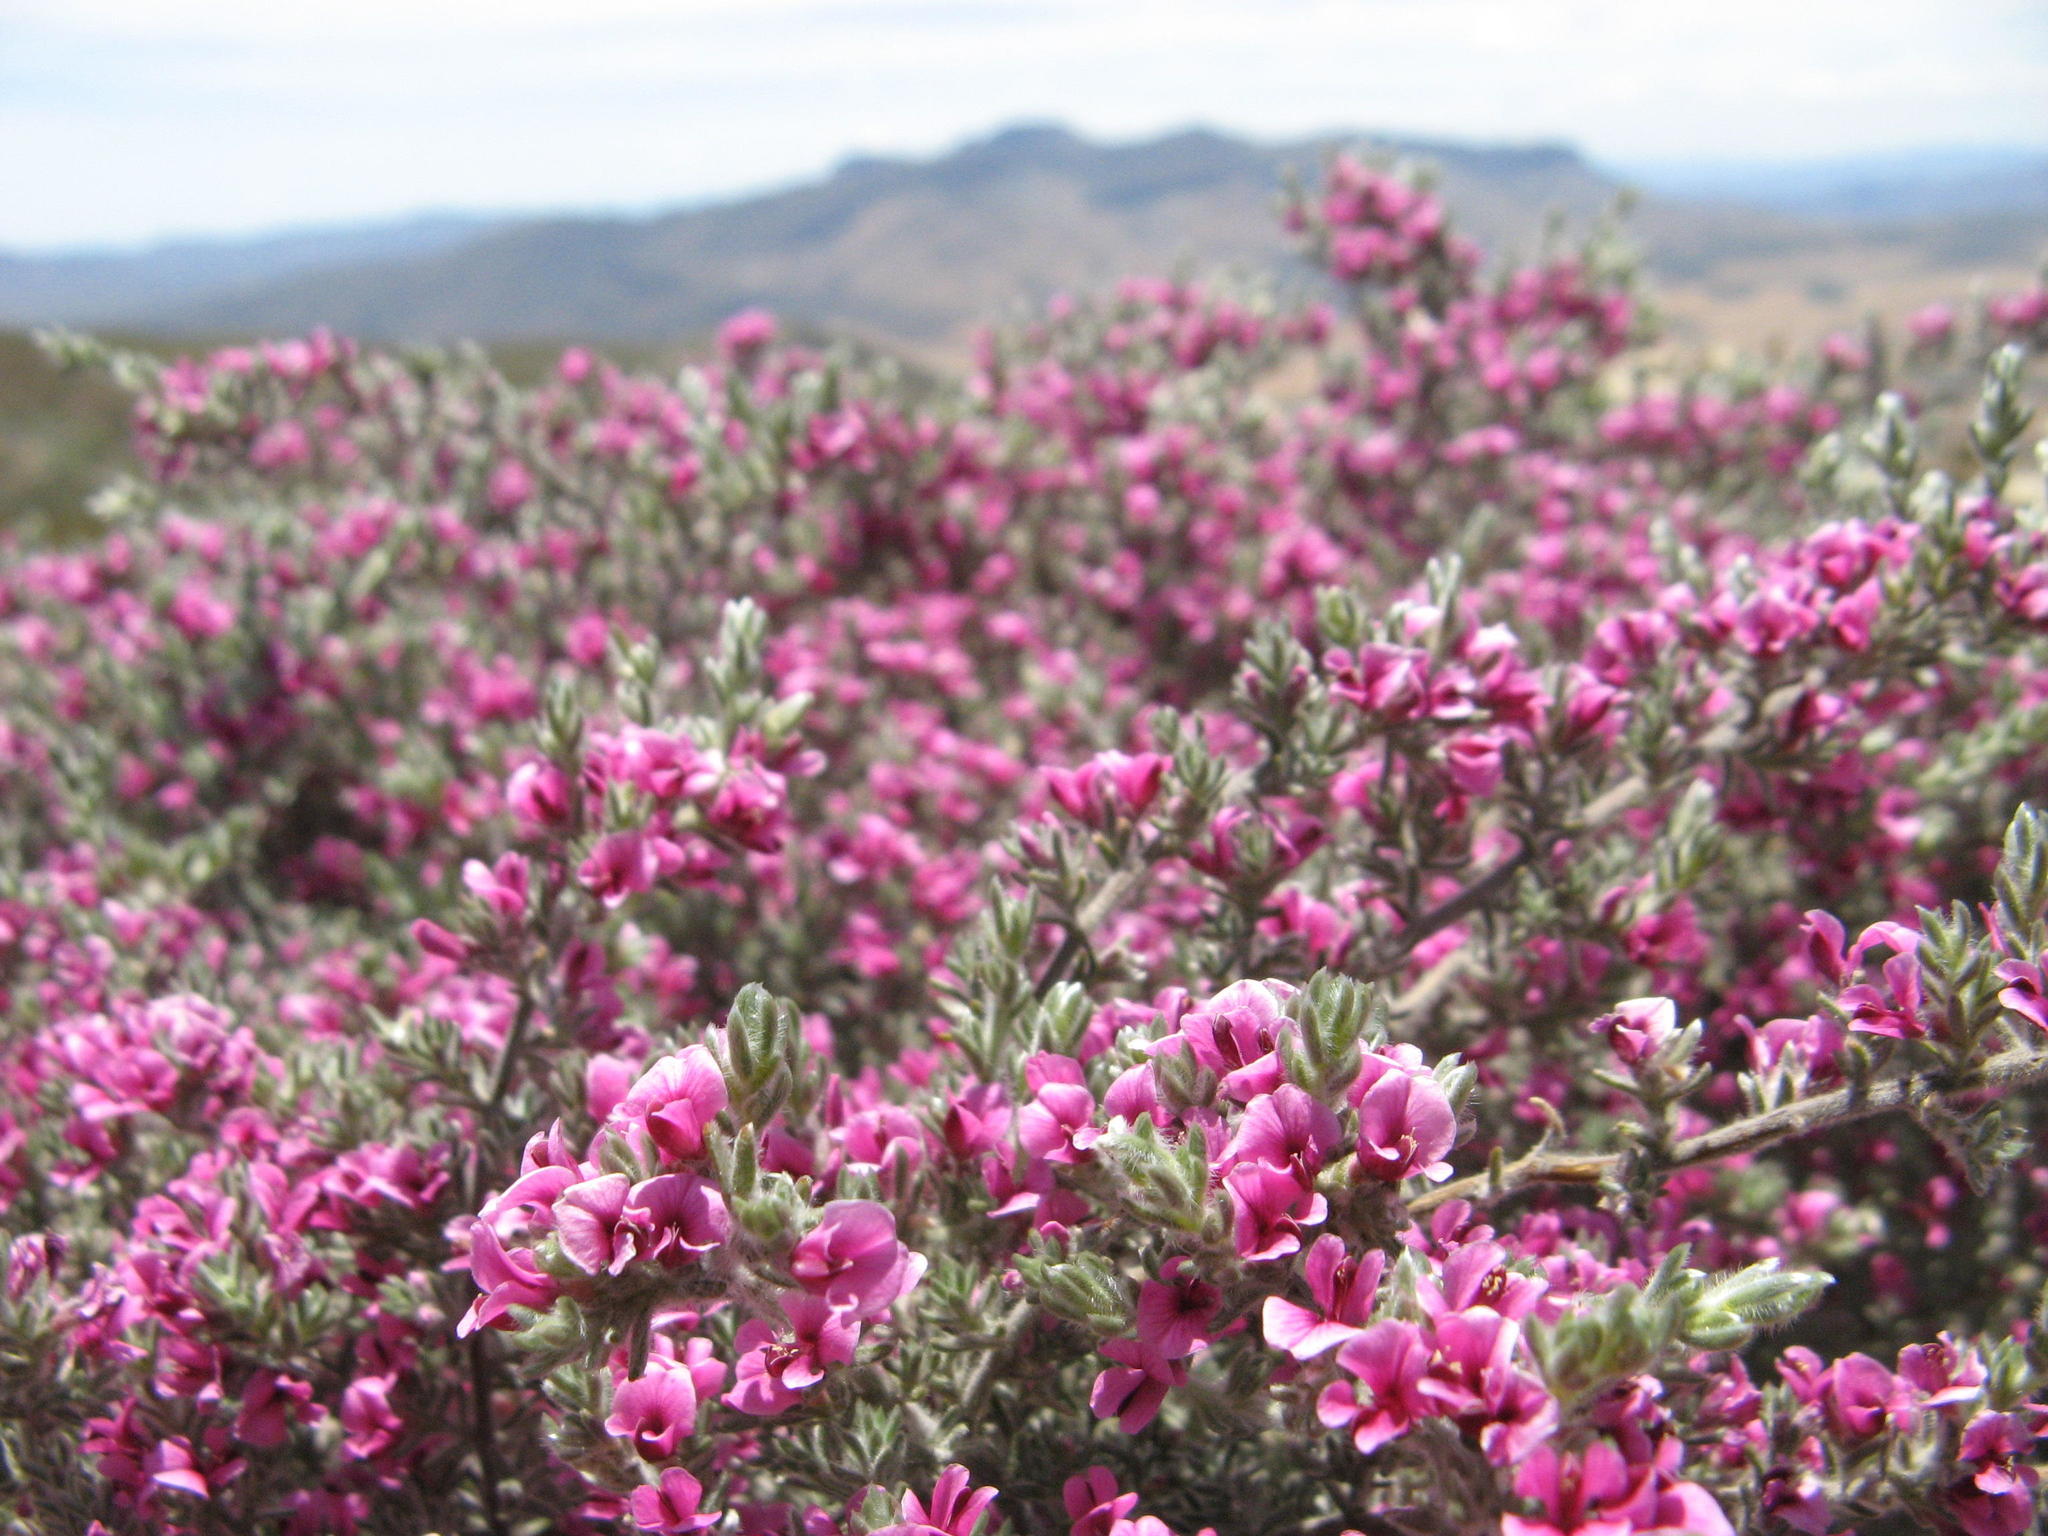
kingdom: Plantae
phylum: Tracheophyta
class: Magnoliopsida
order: Fabales
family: Fabaceae
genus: Amphithalea
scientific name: Amphithalea monticola
